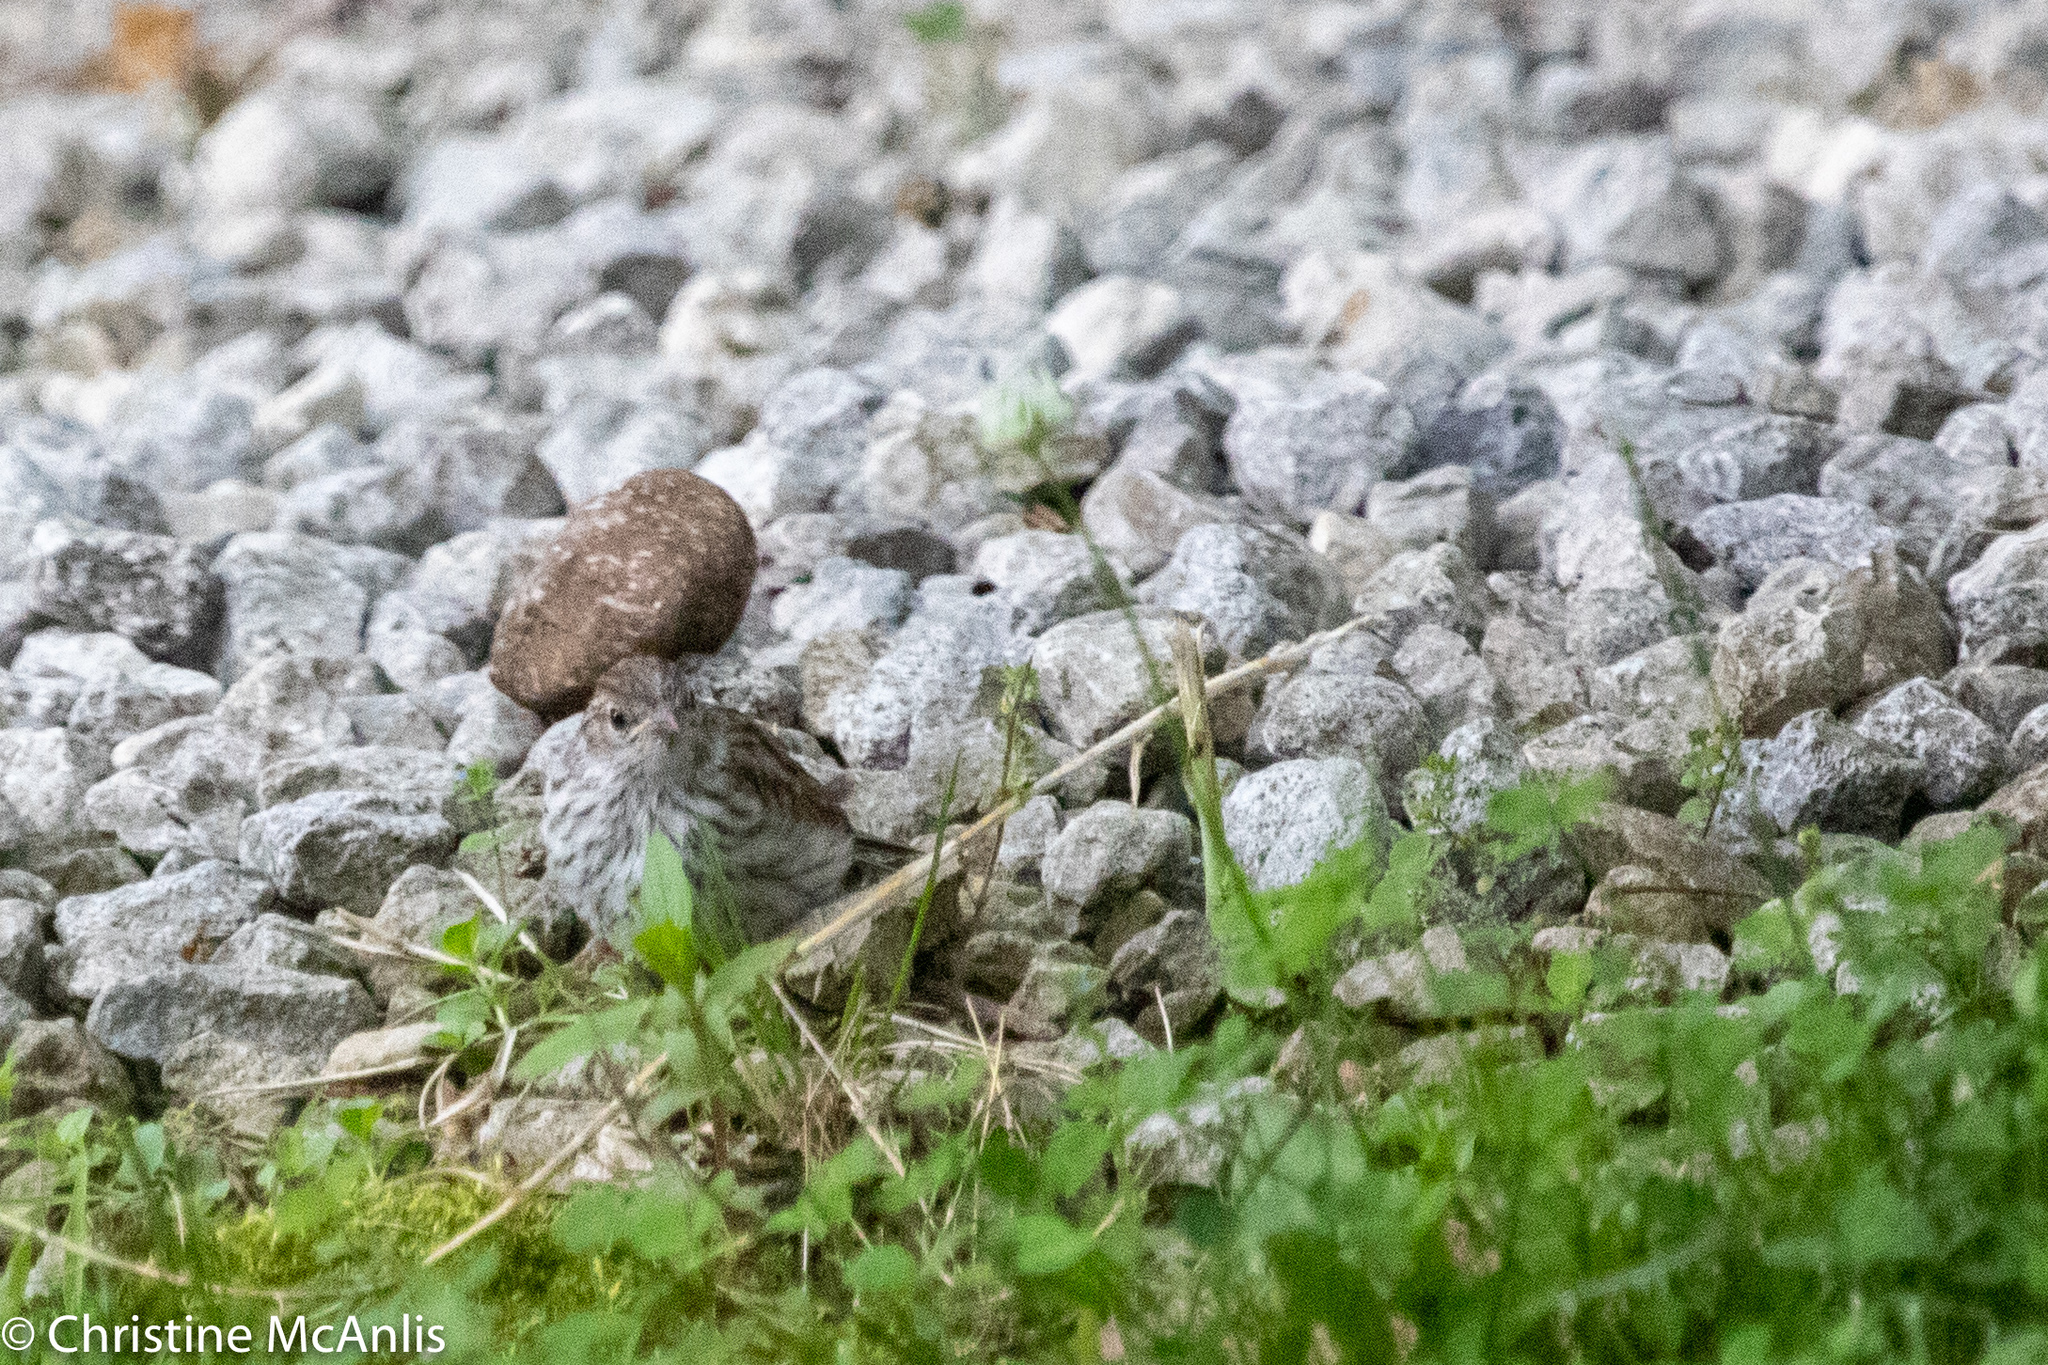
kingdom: Animalia
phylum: Chordata
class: Aves
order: Passeriformes
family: Passerellidae
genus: Spizella
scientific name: Spizella passerina
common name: Chipping sparrow
